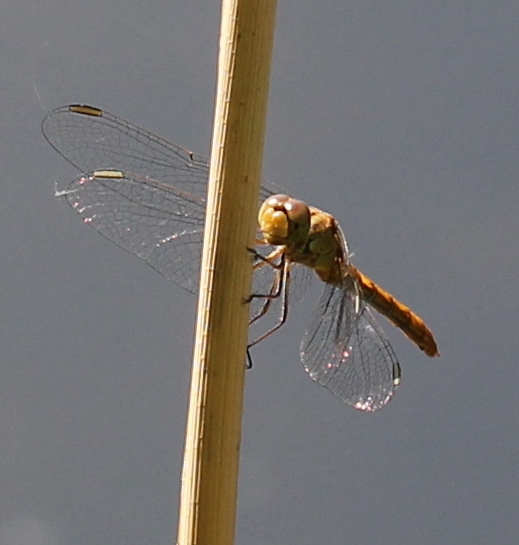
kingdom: Animalia
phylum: Arthropoda
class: Insecta
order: Odonata
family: Libellulidae
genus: Sympetrum
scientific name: Sympetrum meridionale
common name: Southern darter
